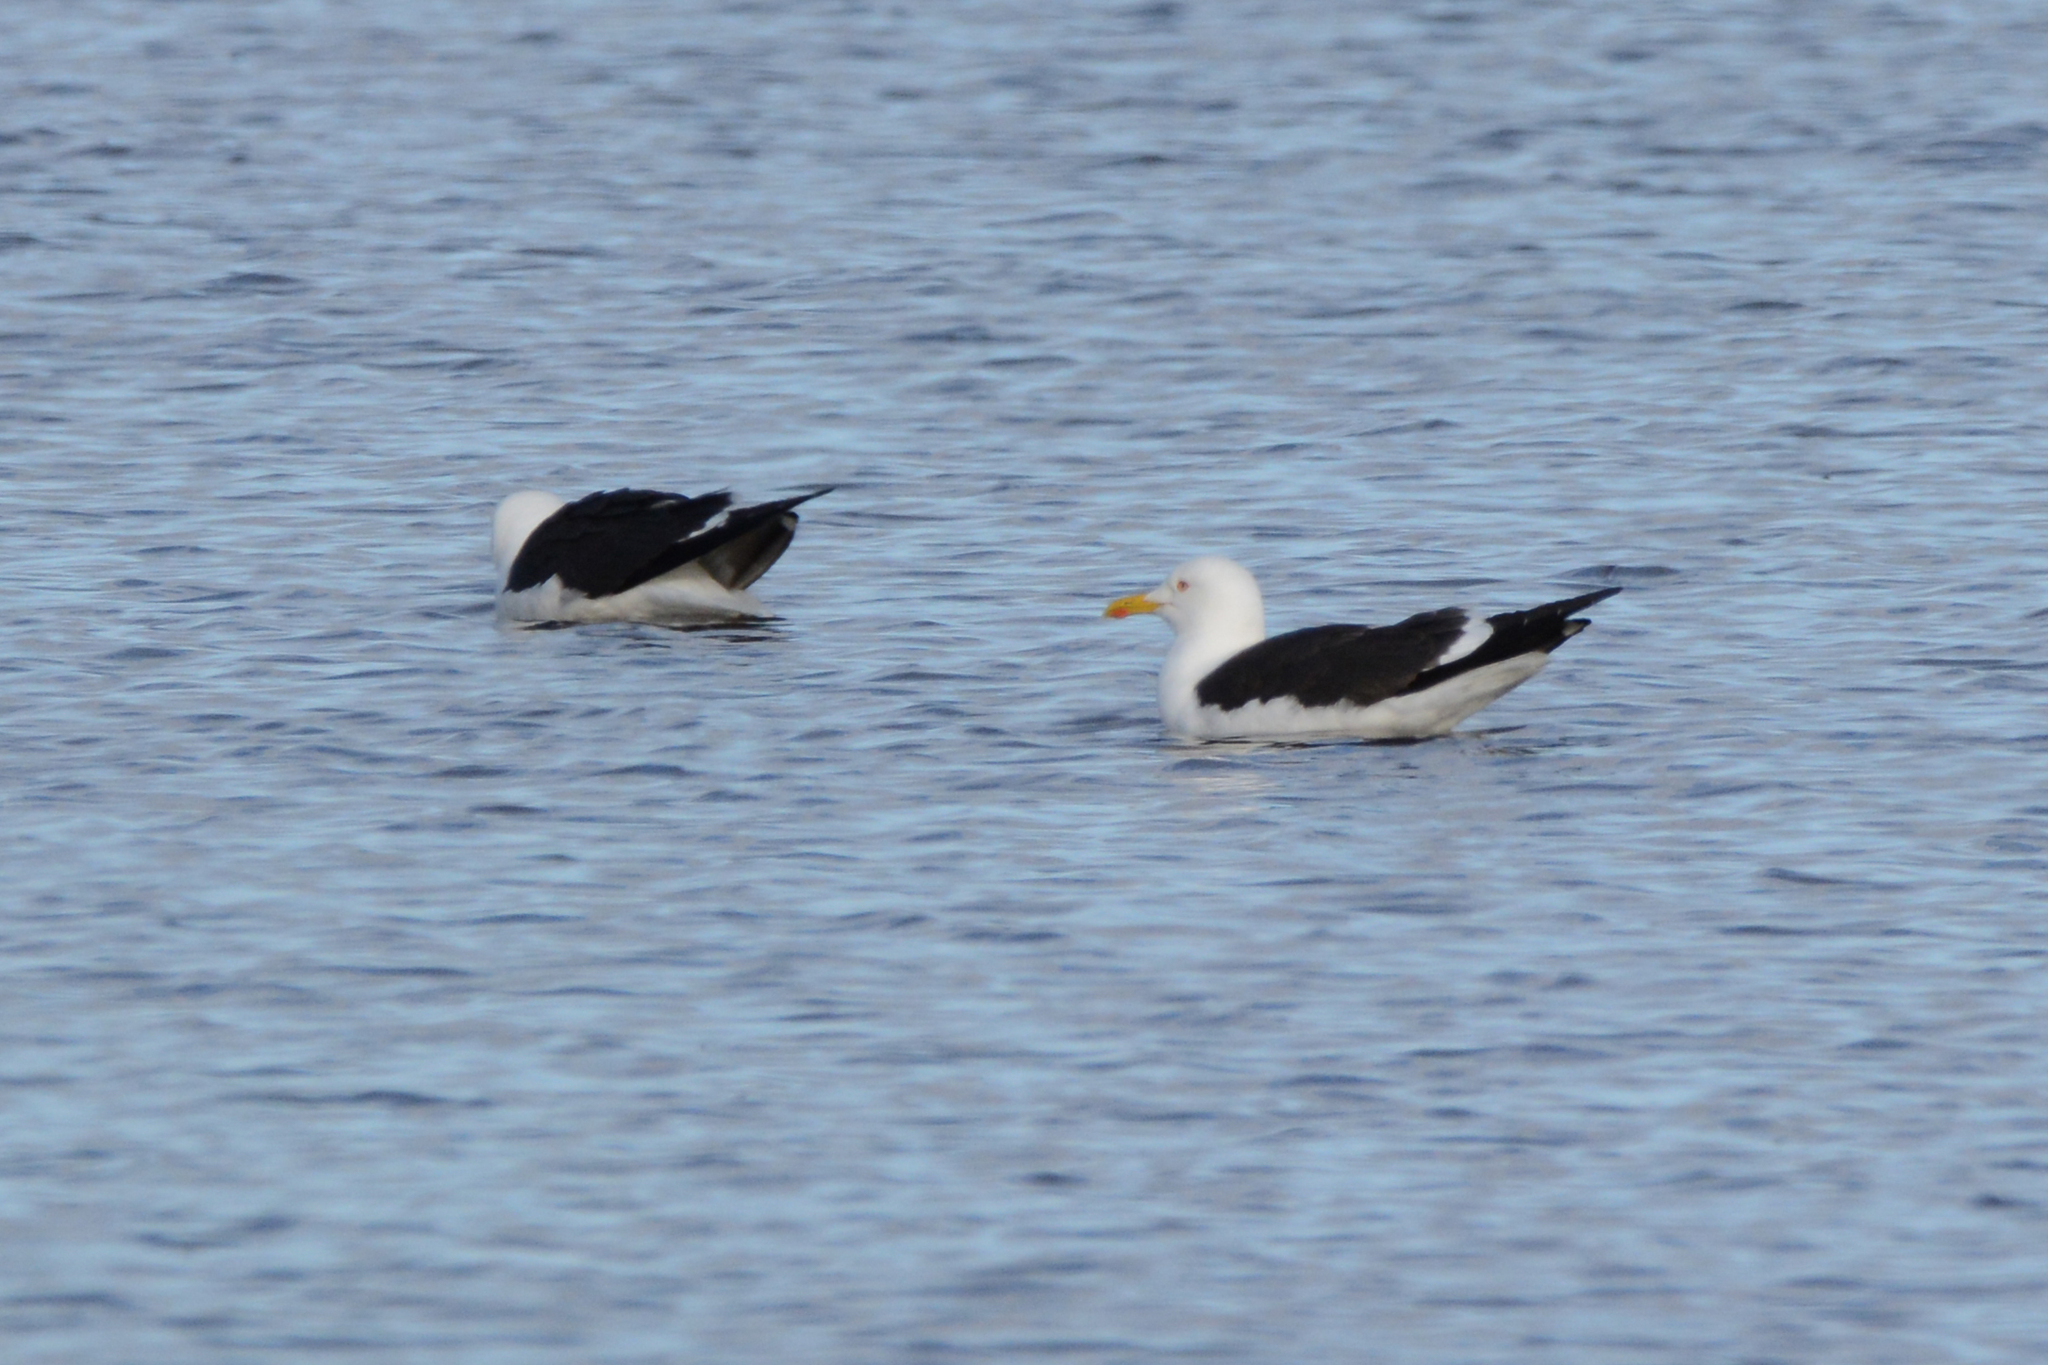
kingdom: Animalia
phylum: Chordata
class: Aves
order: Charadriiformes
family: Laridae
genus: Larus
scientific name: Larus fuscus
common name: Lesser black-backed gull
